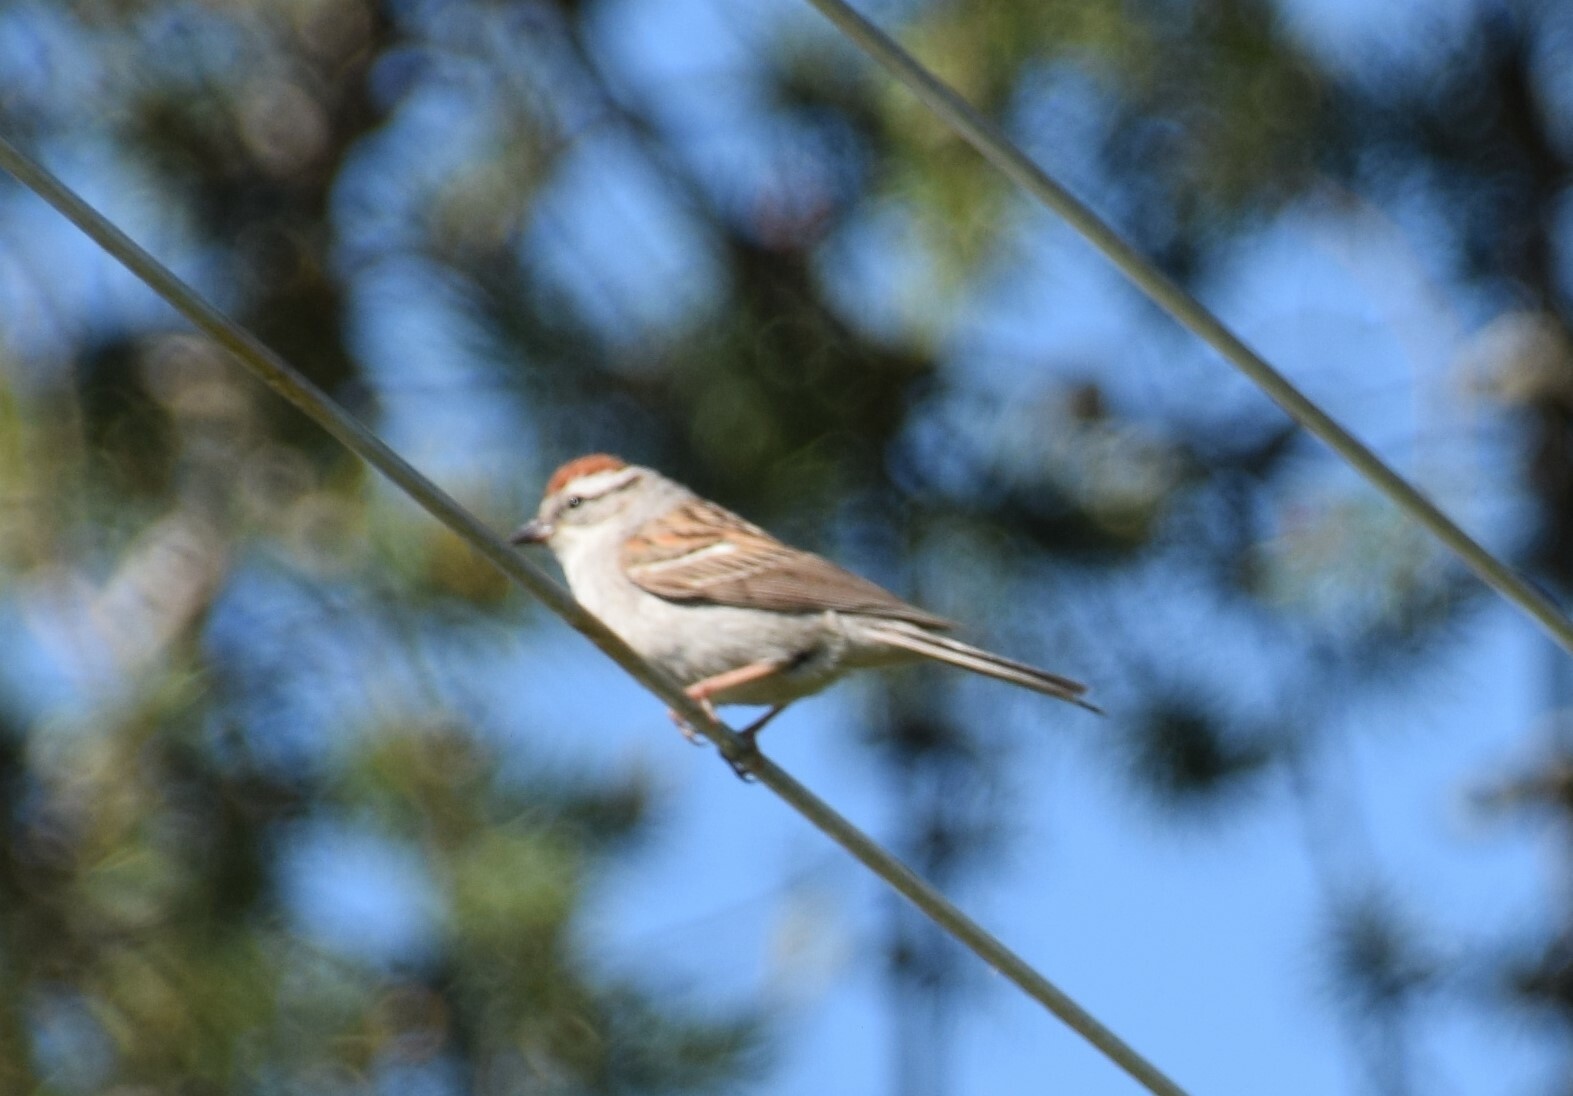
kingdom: Animalia
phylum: Chordata
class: Aves
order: Passeriformes
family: Passerellidae
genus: Spizella
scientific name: Spizella passerina
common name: Chipping sparrow
